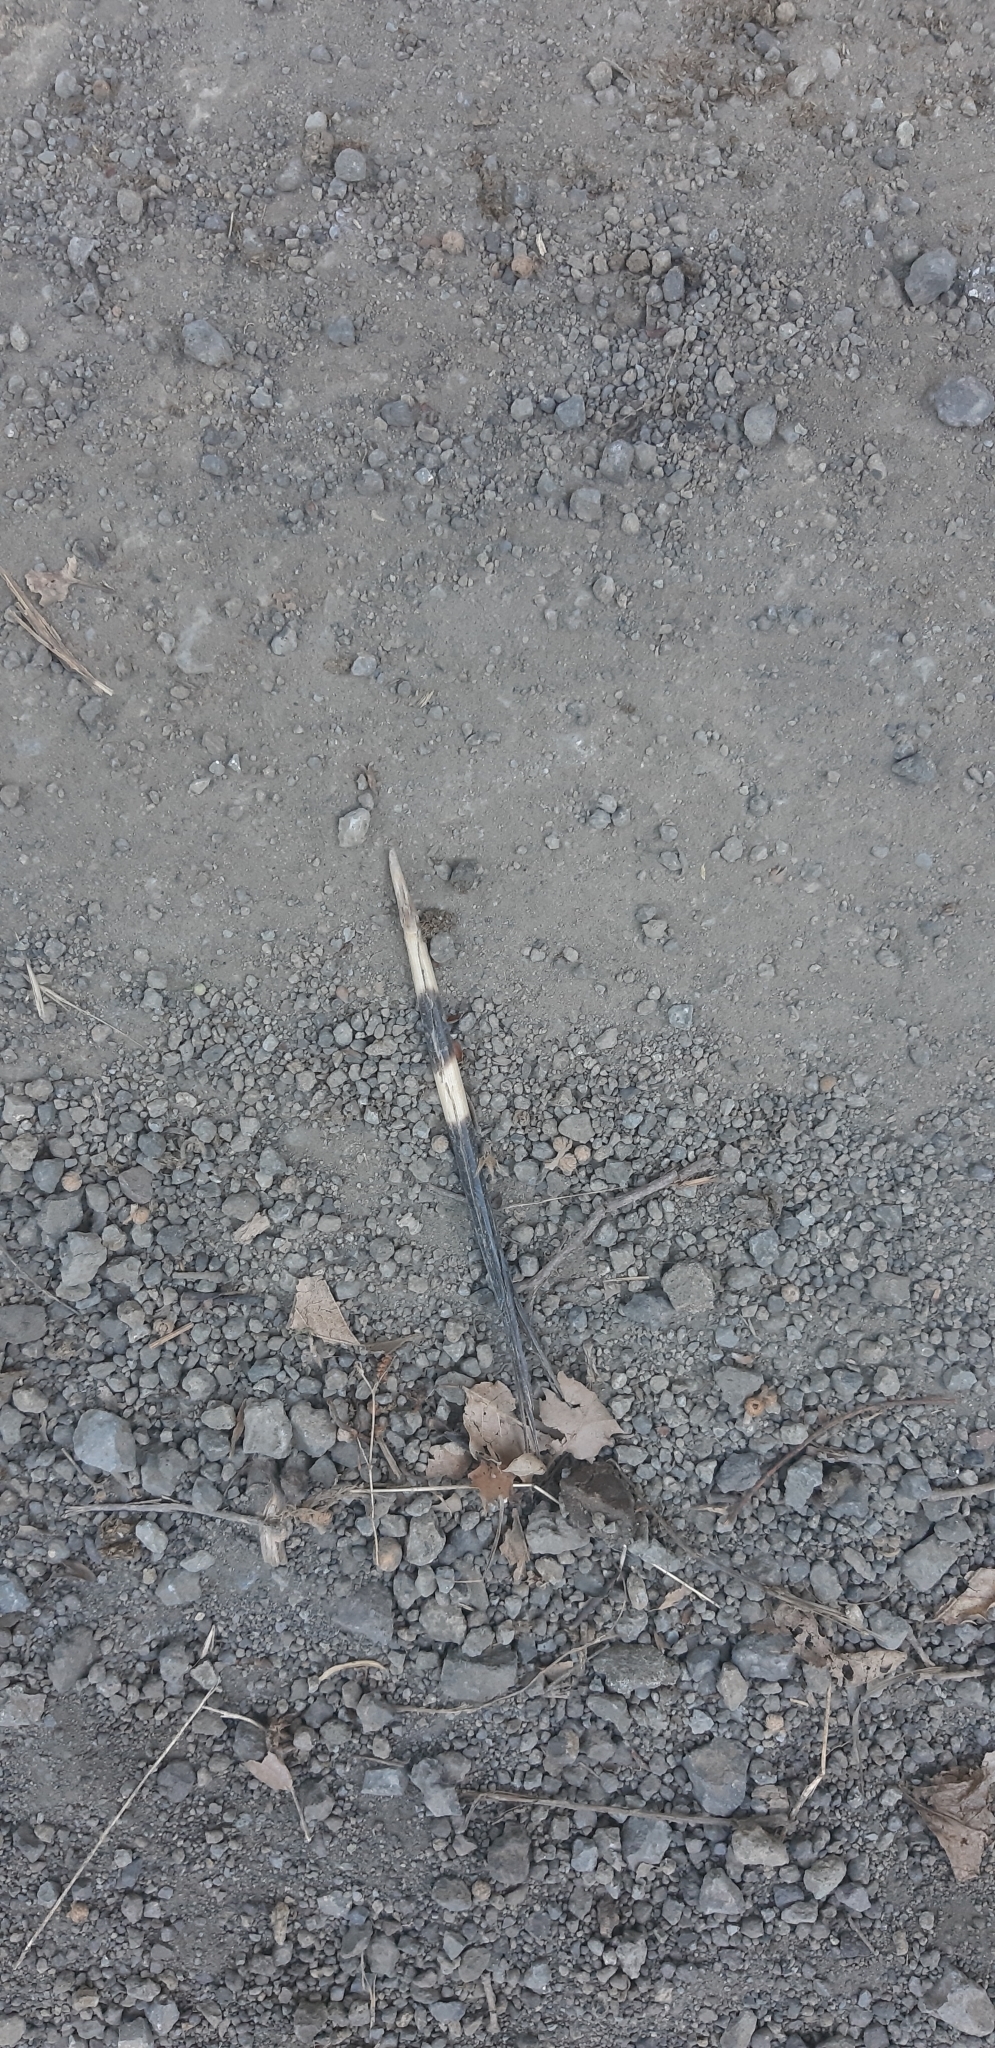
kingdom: Animalia
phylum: Chordata
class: Mammalia
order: Rodentia
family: Hystricidae
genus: Hystrix
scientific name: Hystrix cristata
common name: Crested porcupine
